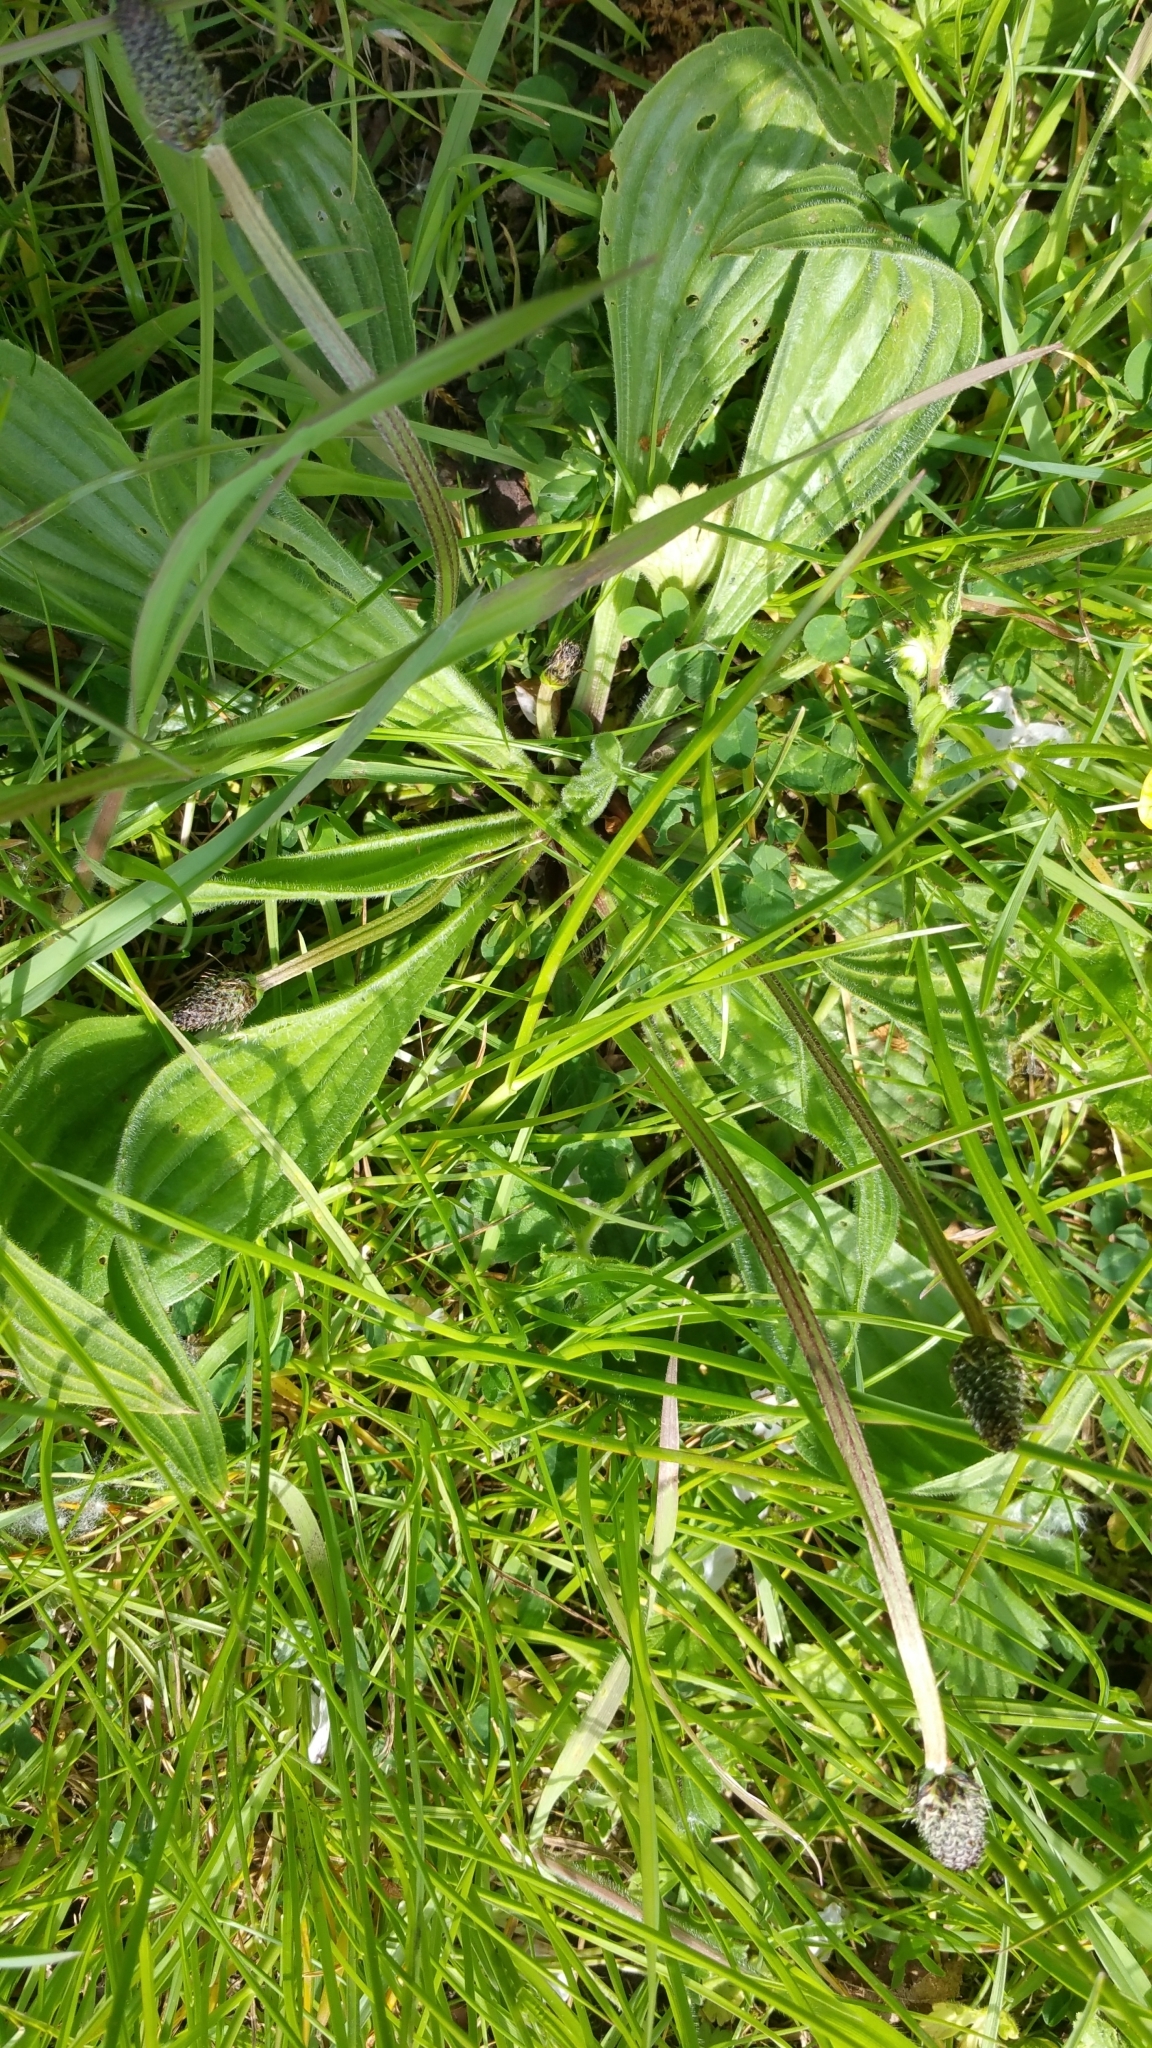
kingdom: Plantae
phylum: Tracheophyta
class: Magnoliopsida
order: Lamiales
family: Plantaginaceae
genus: Plantago
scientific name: Plantago lanceolata
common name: Ribwort plantain
